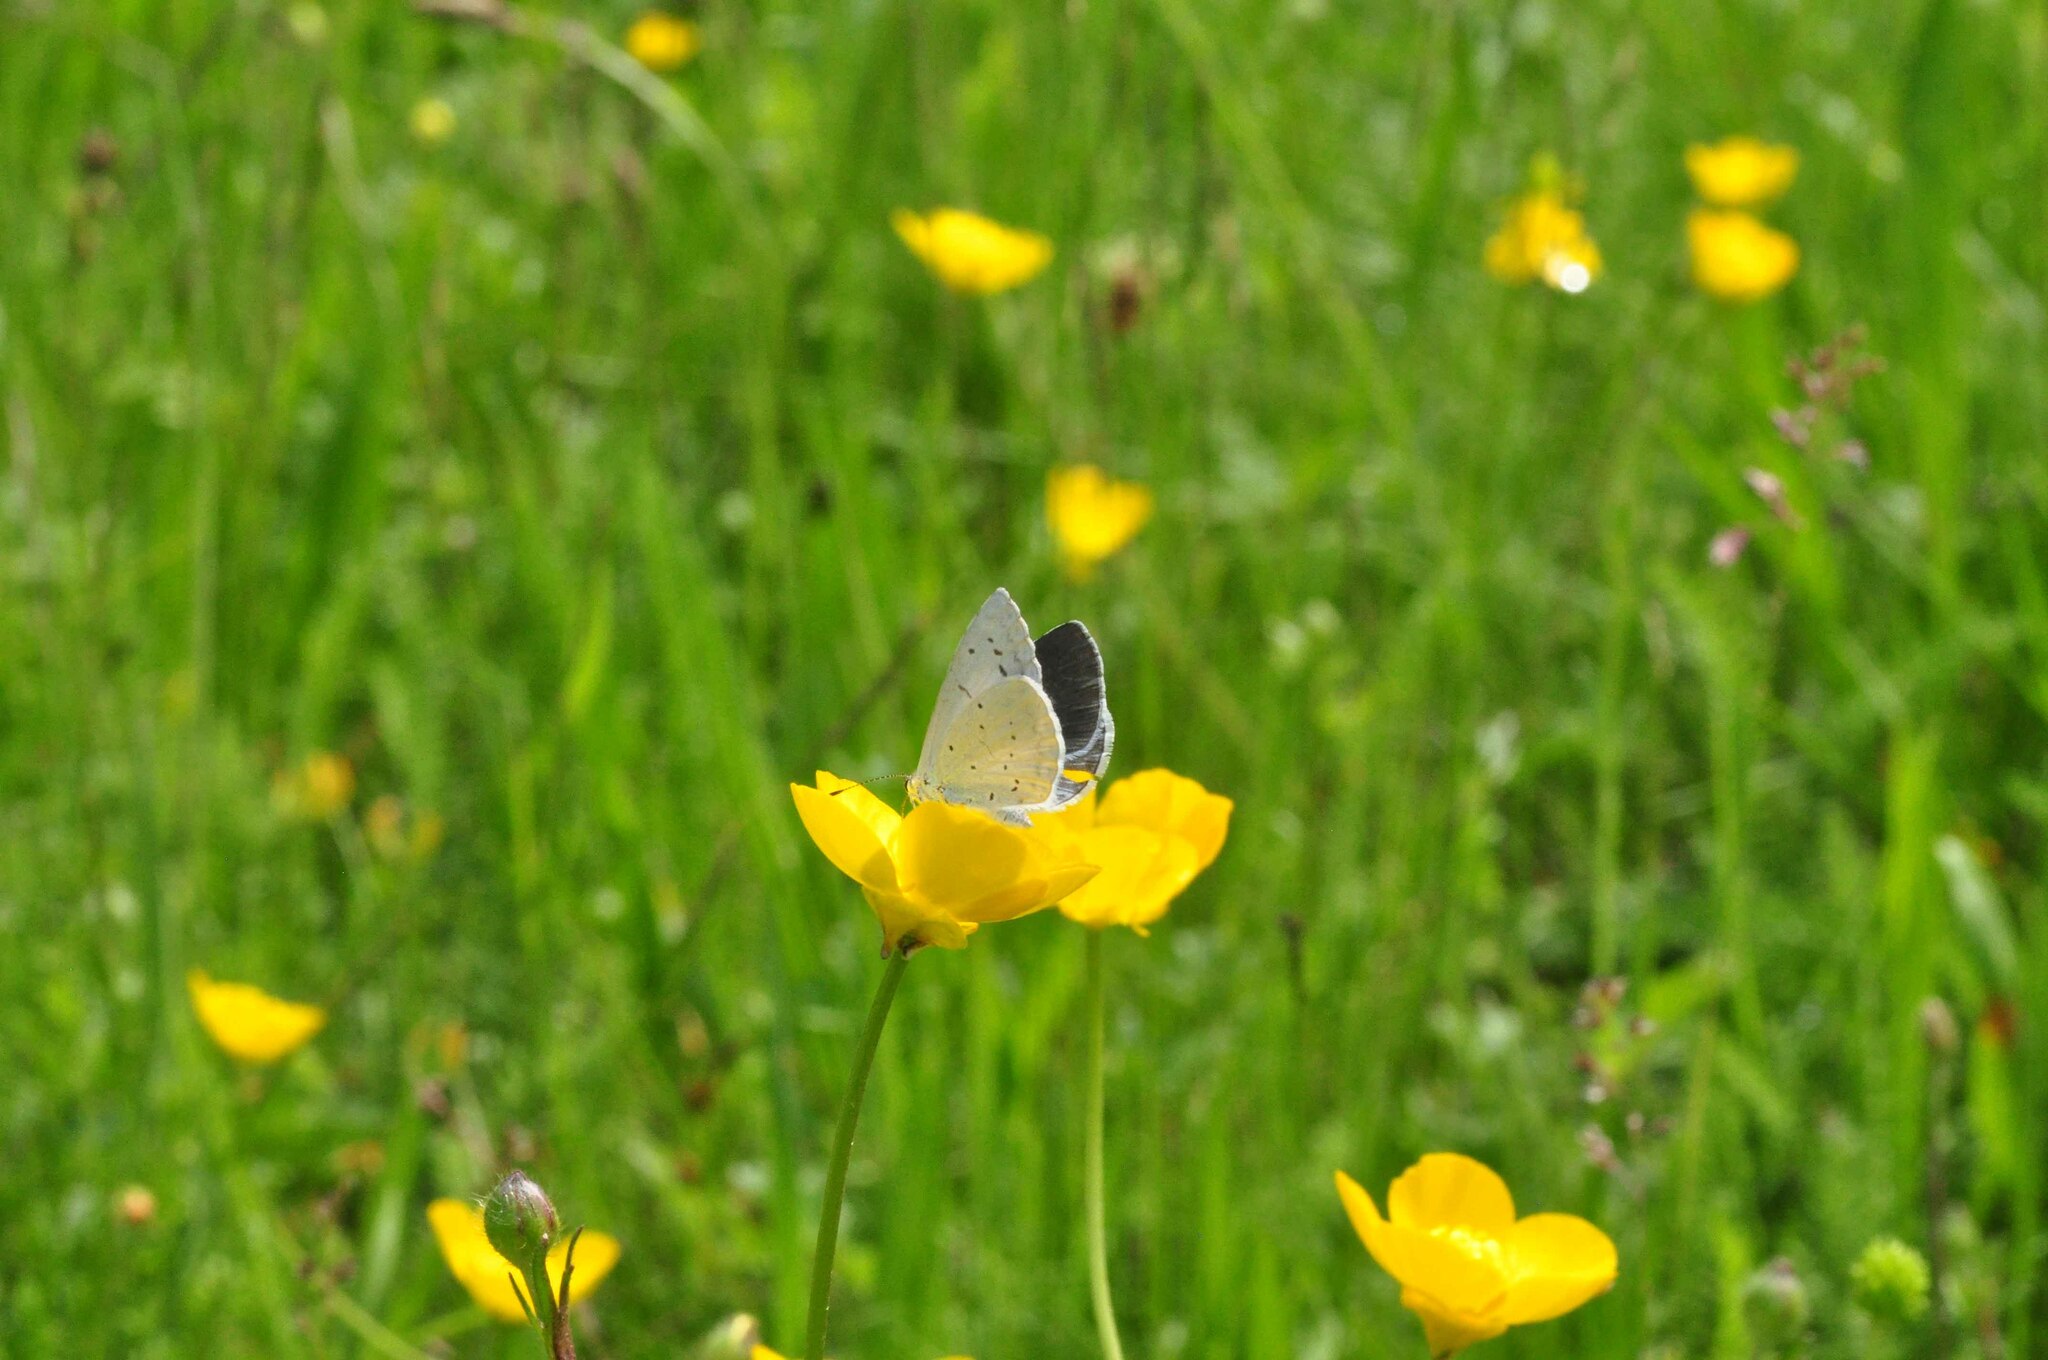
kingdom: Animalia
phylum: Arthropoda
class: Insecta
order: Lepidoptera
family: Lycaenidae
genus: Celastrina
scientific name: Celastrina argiolus
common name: Holly blue
